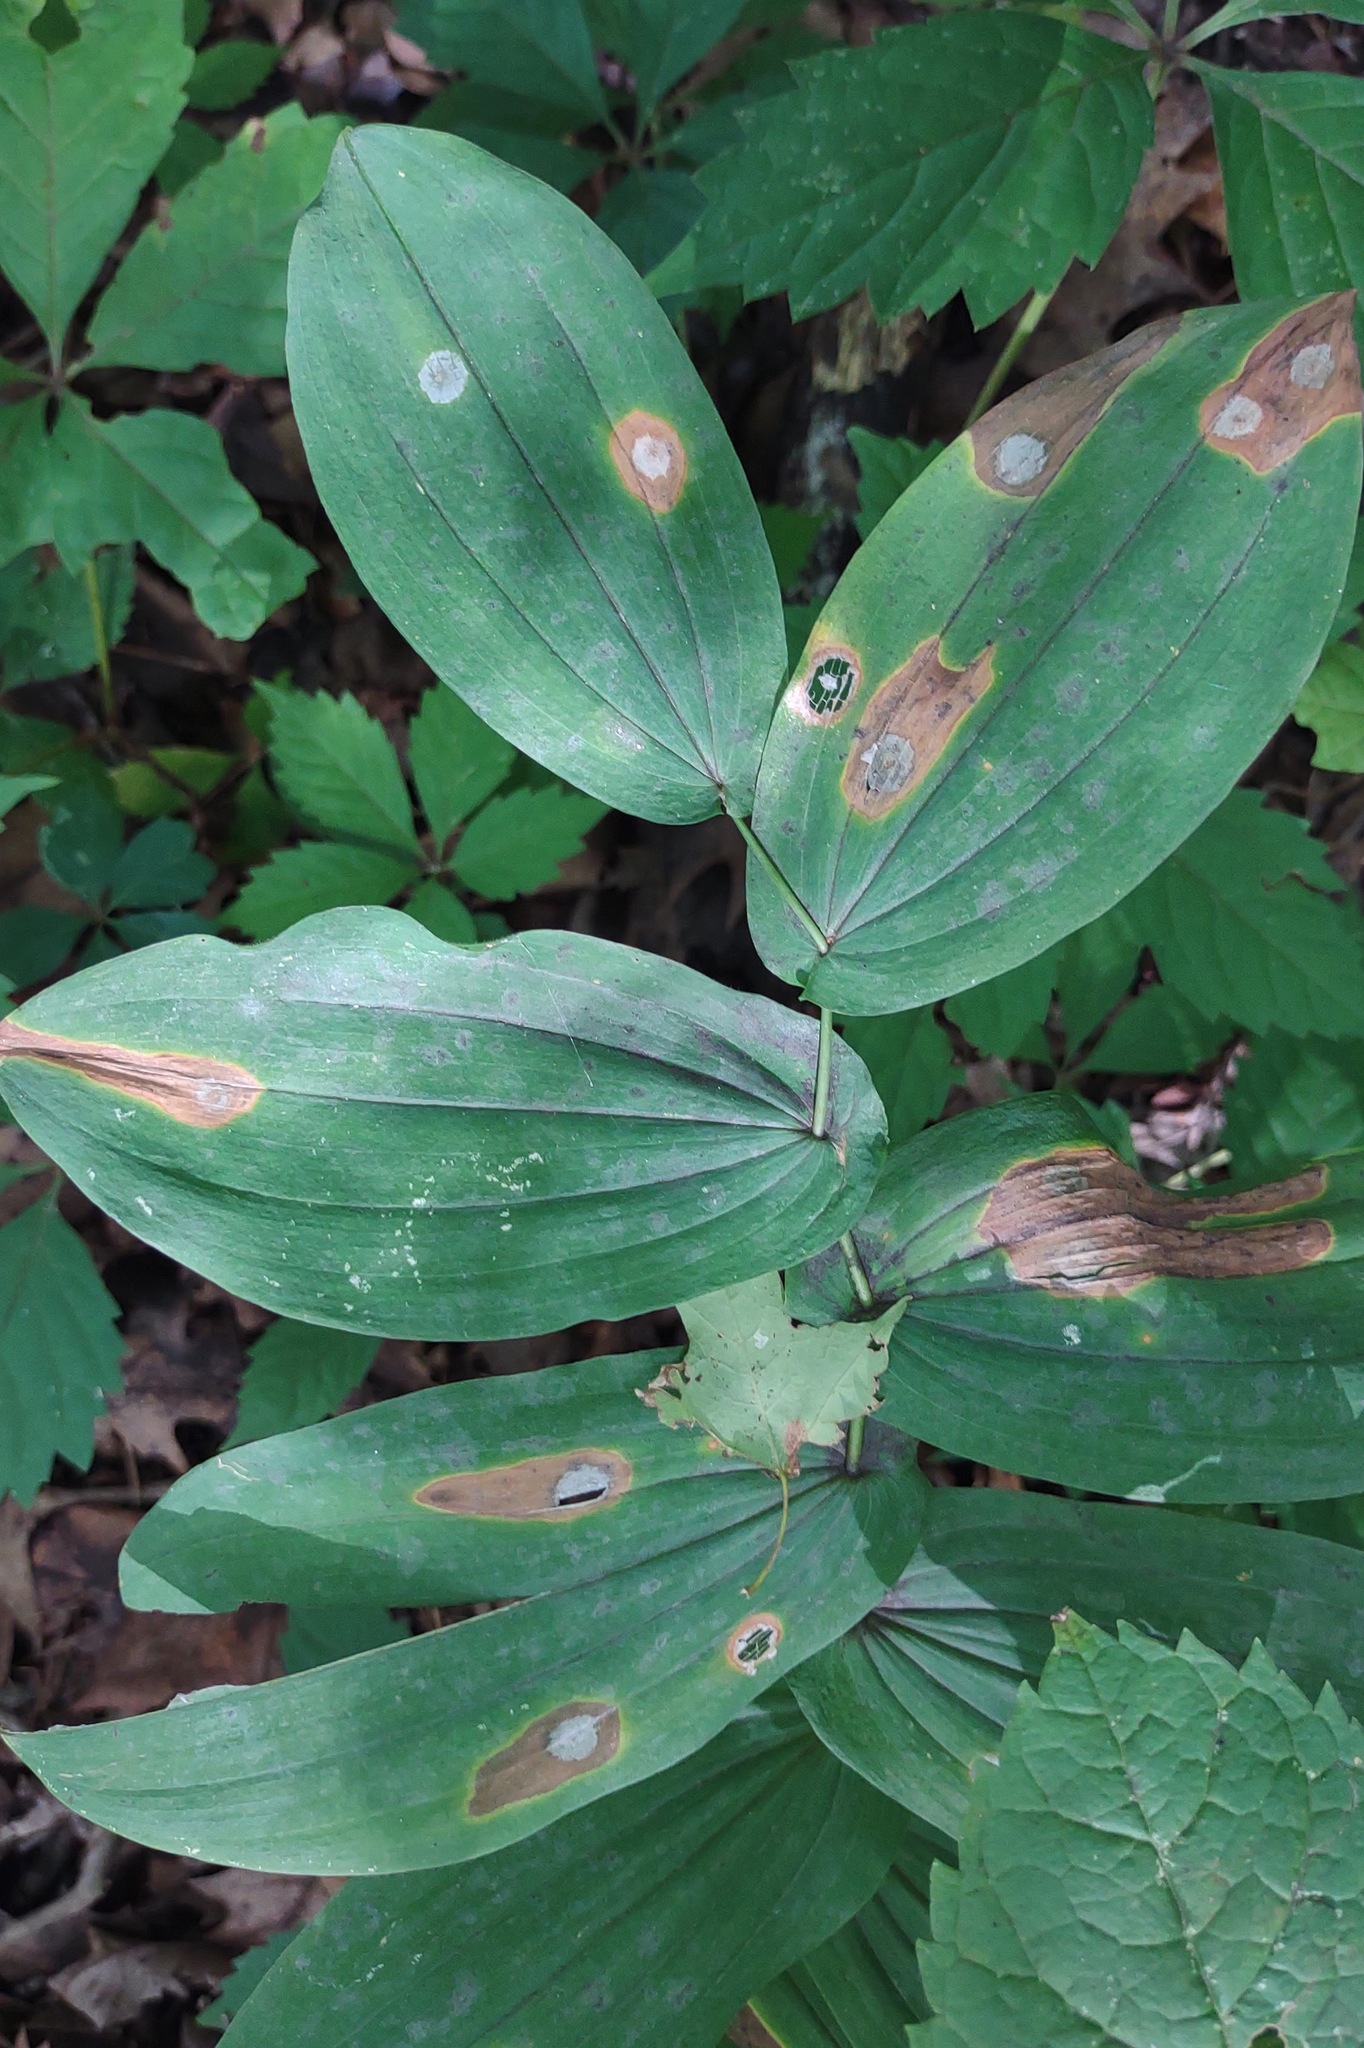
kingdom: Animalia
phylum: Arthropoda
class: Insecta
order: Diptera
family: Cecidomyiidae
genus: Meunieriella
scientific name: Meunieriella
